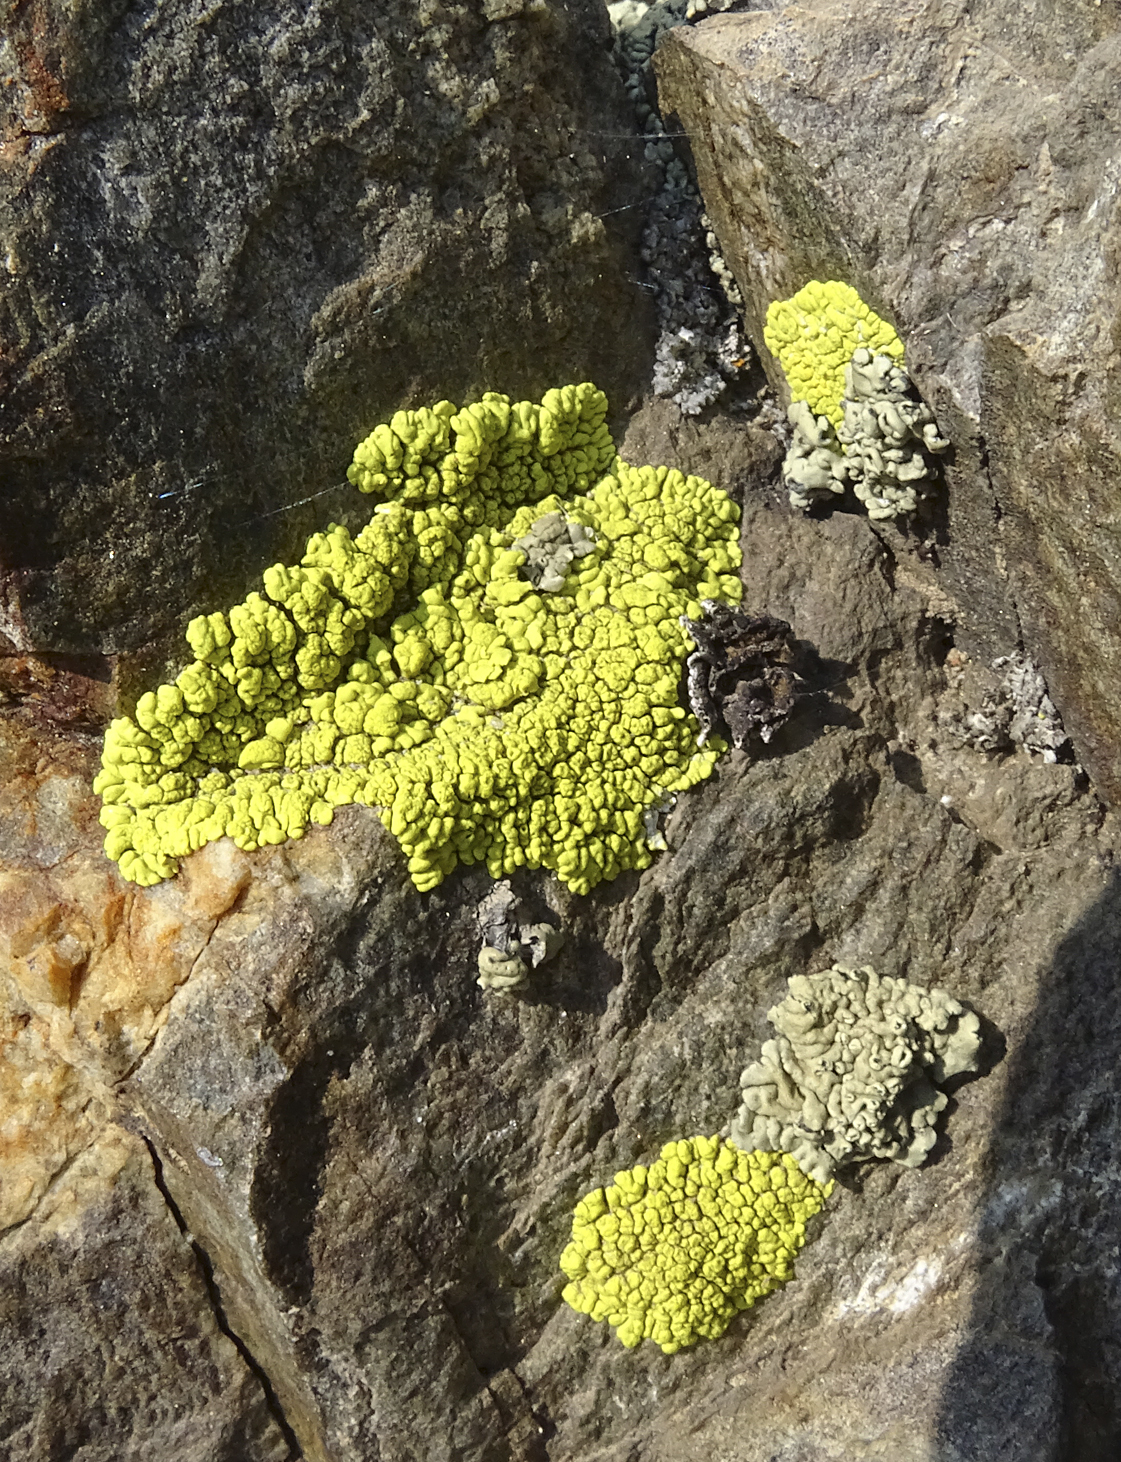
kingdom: Fungi
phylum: Ascomycota
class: Lecanoromycetes
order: Acarosporales
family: Acarosporaceae
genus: Pleopsidium
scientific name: Pleopsidium oxytonum
